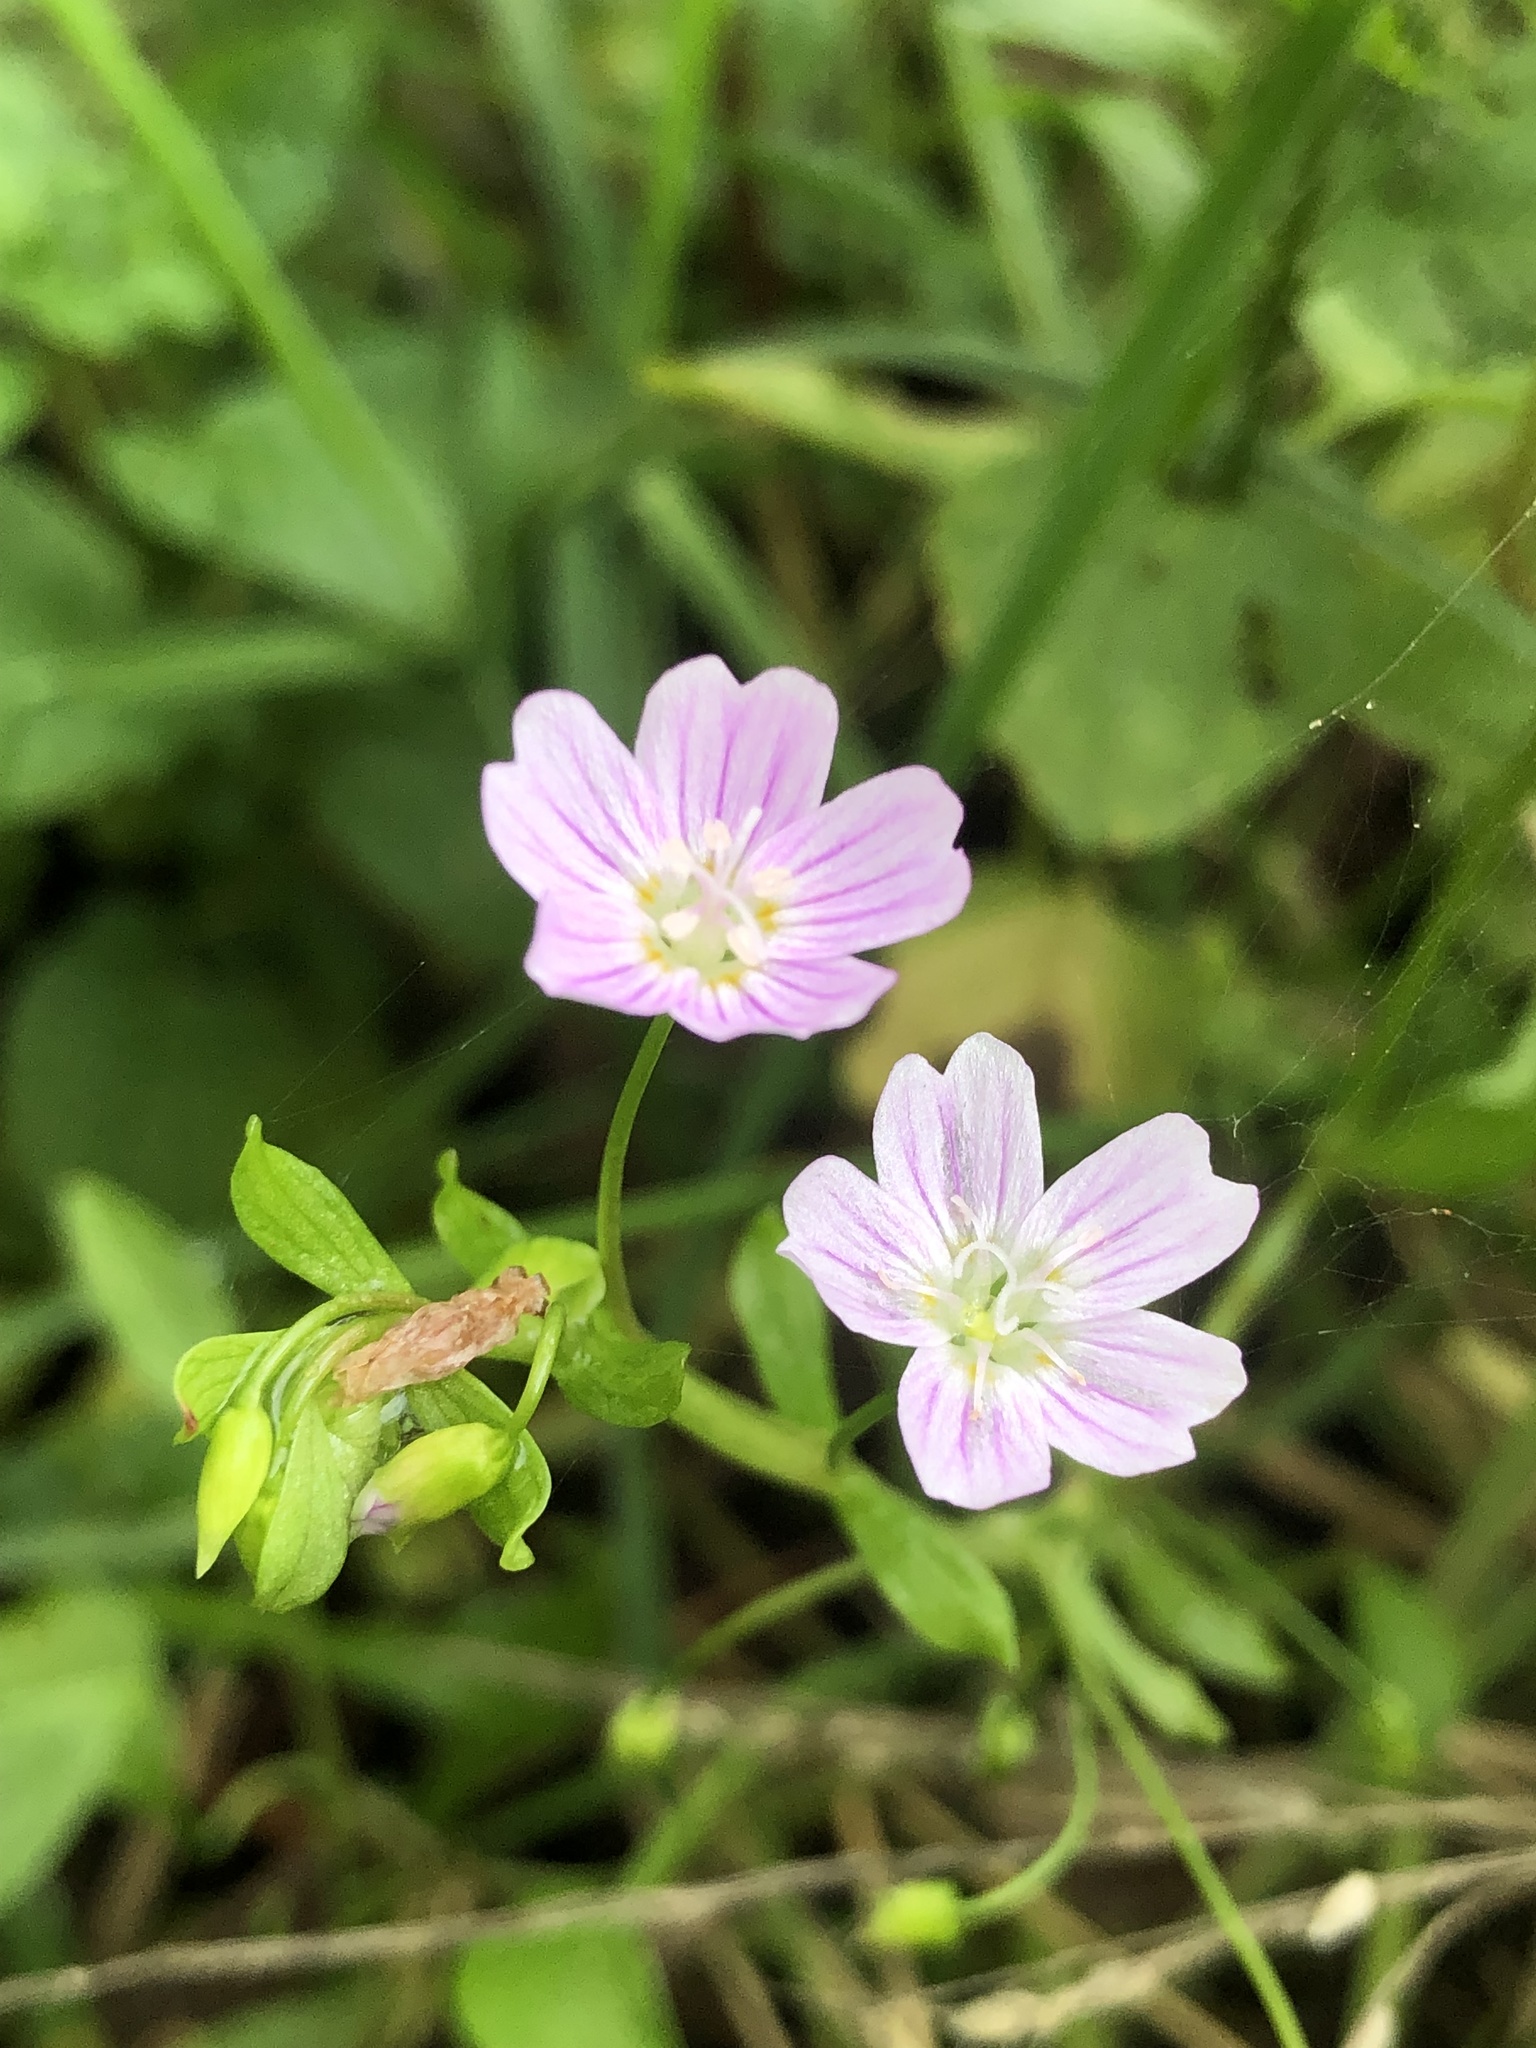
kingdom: Plantae
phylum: Tracheophyta
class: Magnoliopsida
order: Caryophyllales
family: Montiaceae
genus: Claytonia
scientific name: Claytonia sibirica
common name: Pink purslane
